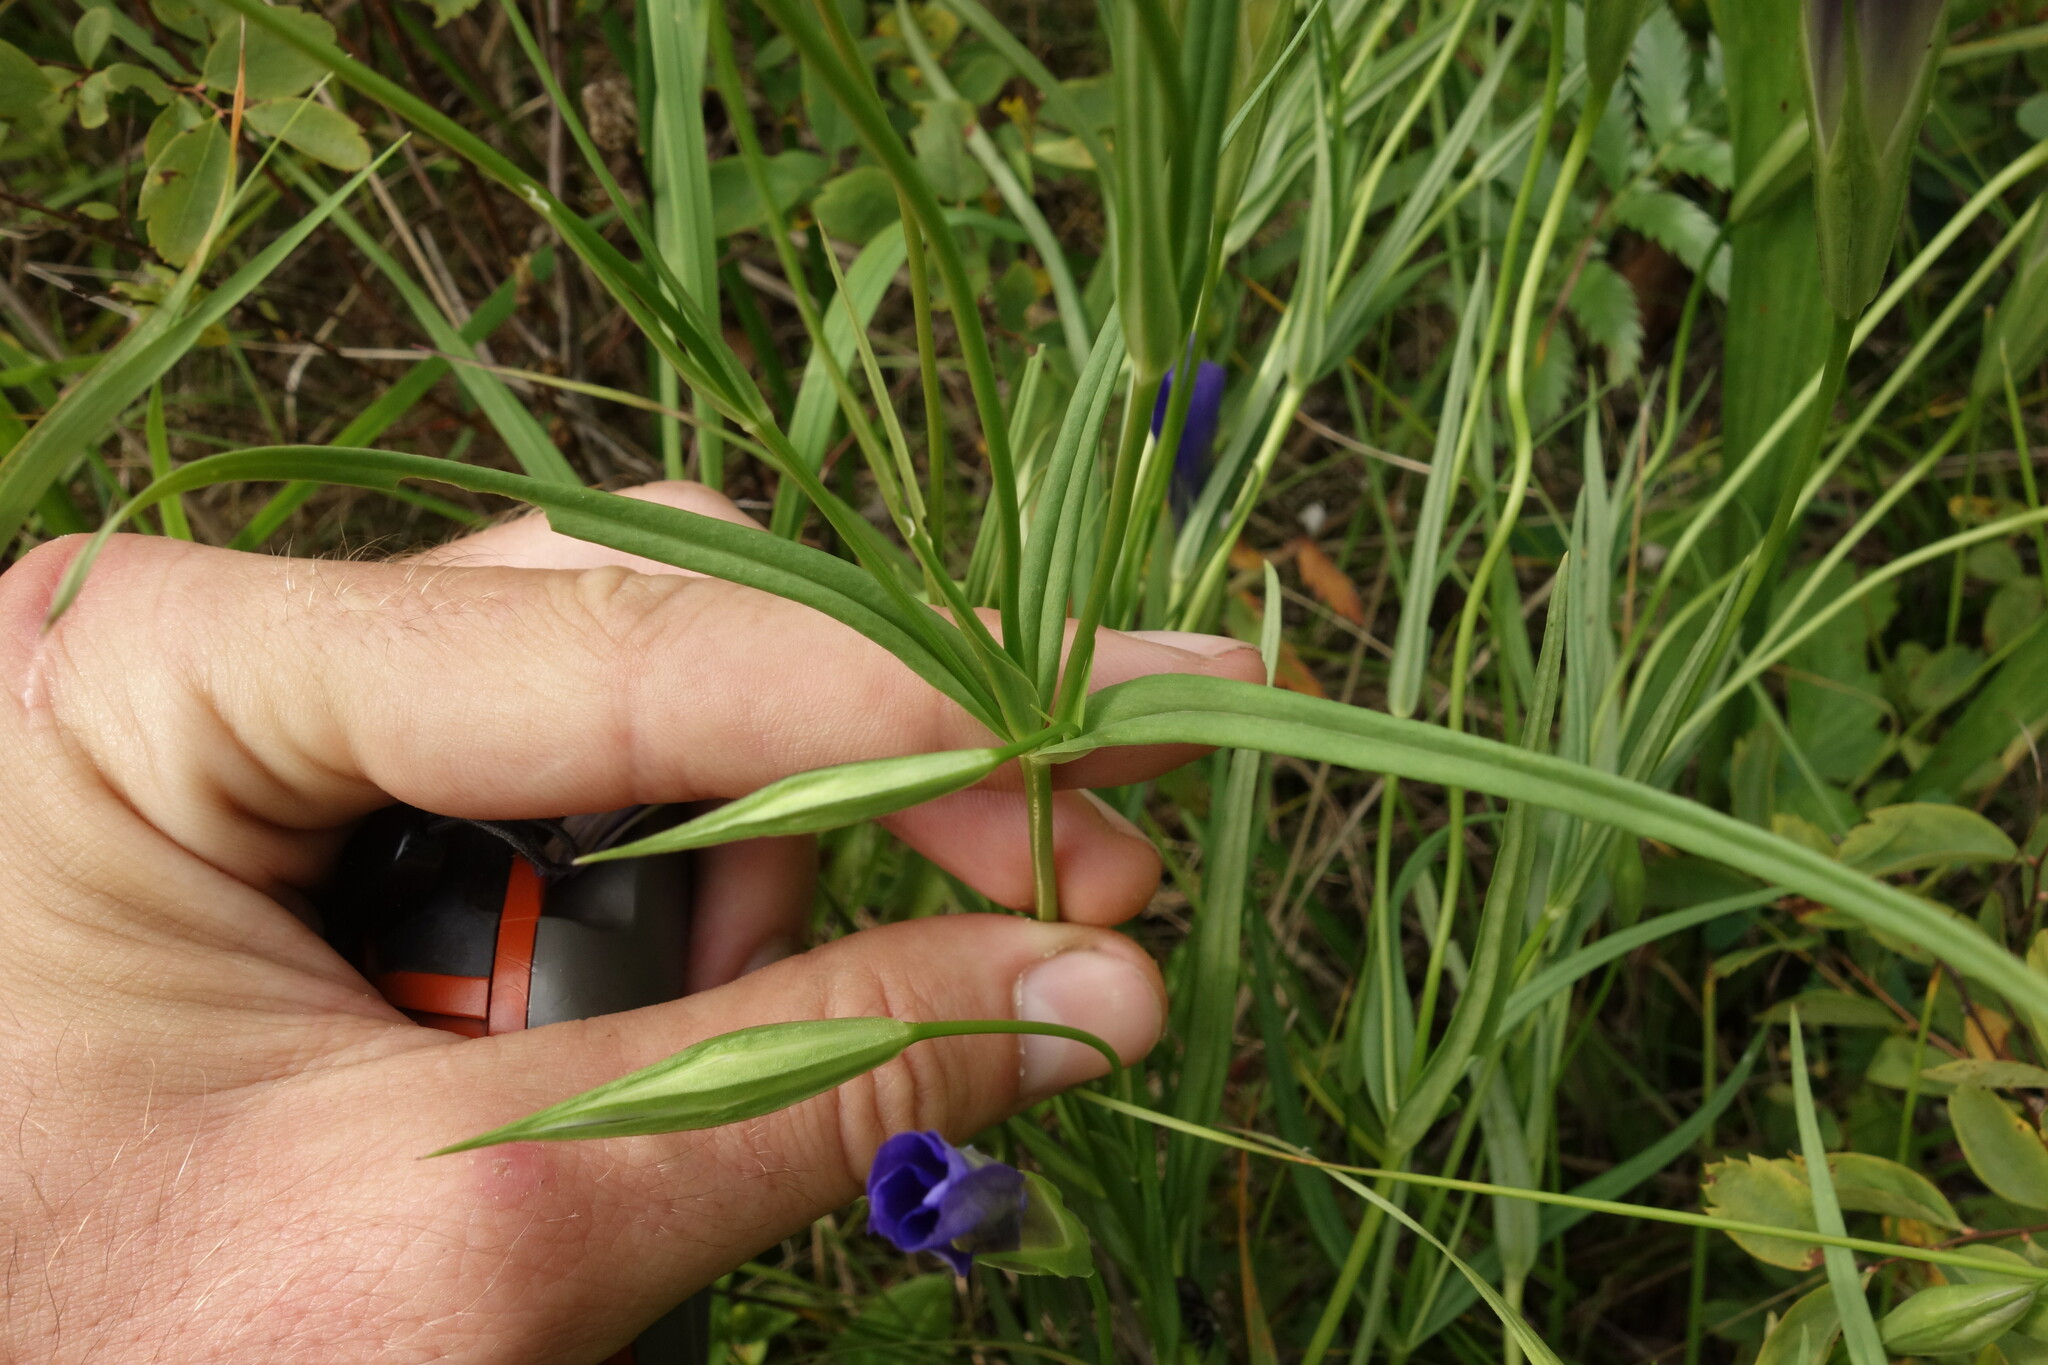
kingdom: Plantae
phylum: Tracheophyta
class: Magnoliopsida
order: Gentianales
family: Gentianaceae
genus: Gentianopsis
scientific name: Gentianopsis barbata
